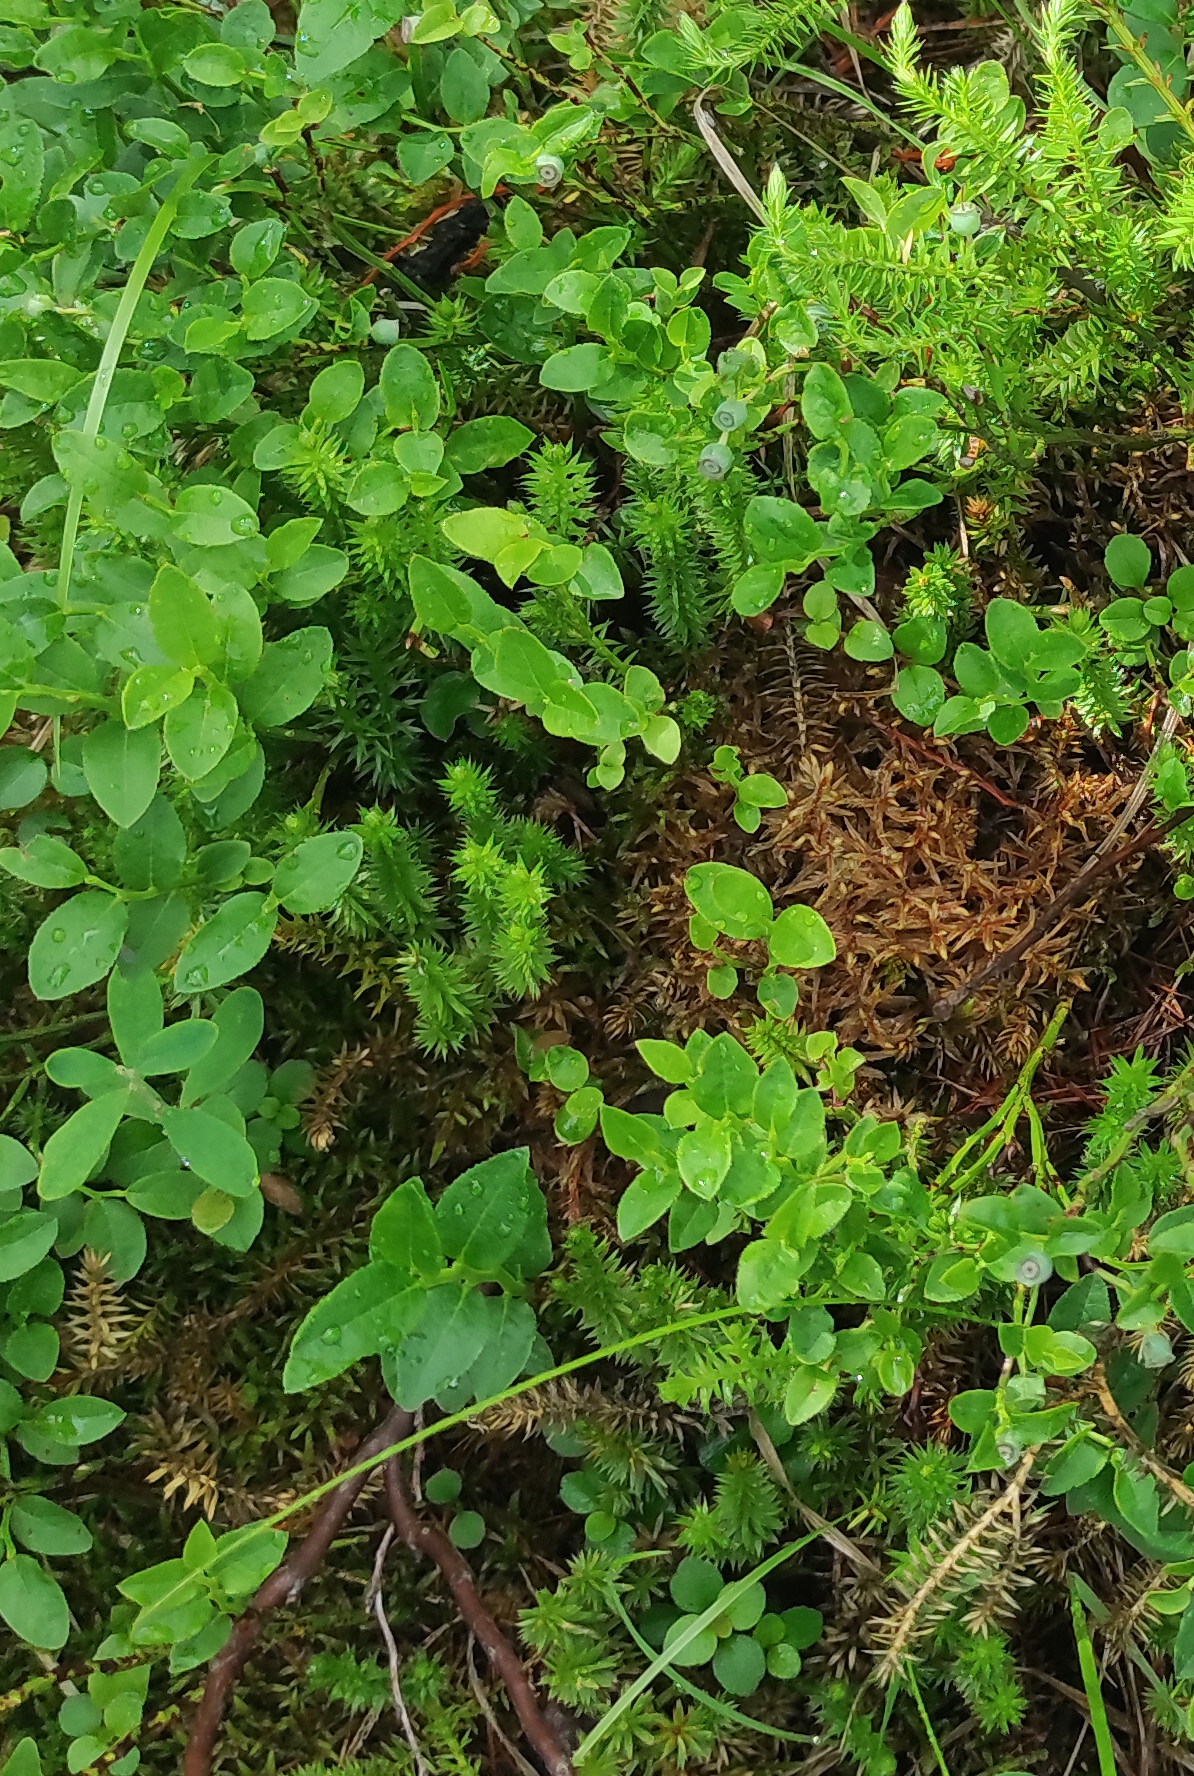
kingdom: Plantae
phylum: Tracheophyta
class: Lycopodiopsida
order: Lycopodiales
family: Lycopodiaceae
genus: Spinulum
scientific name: Spinulum annotinum
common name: Interrupted club-moss
